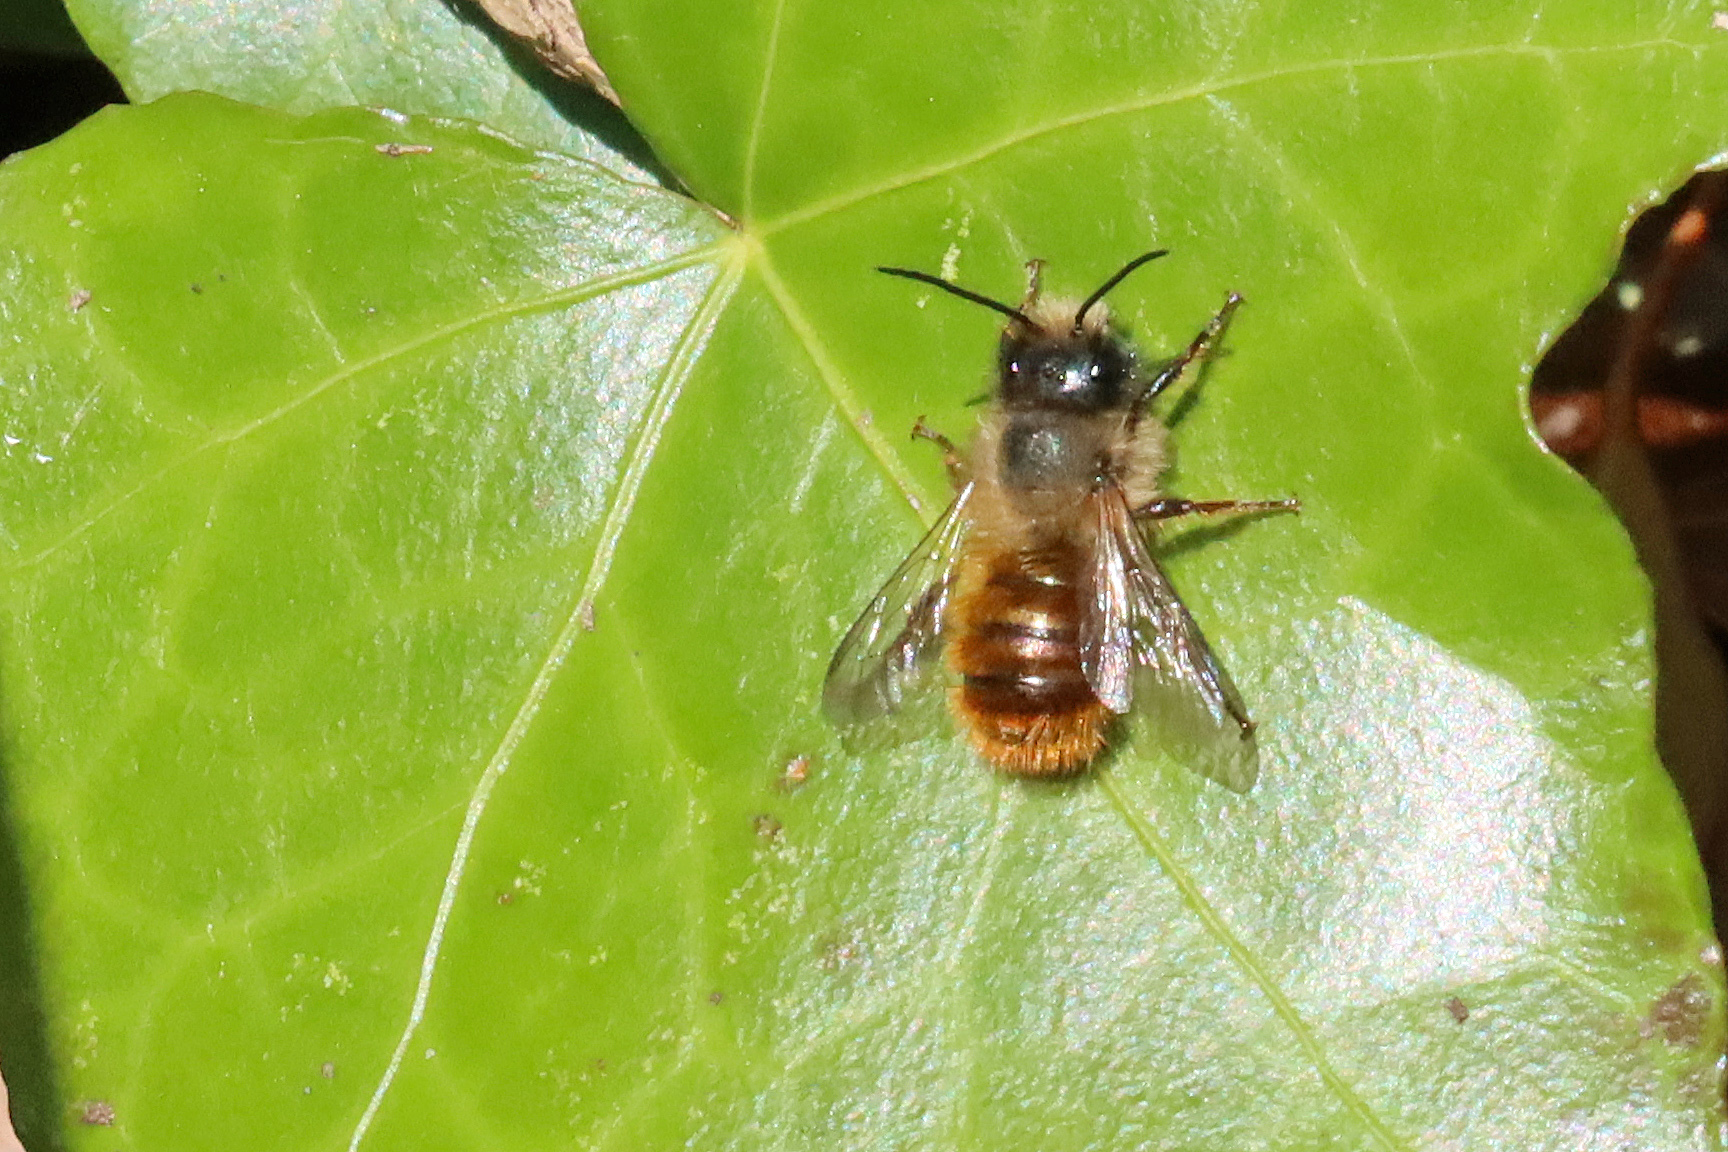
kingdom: Animalia
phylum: Arthropoda
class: Insecta
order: Hymenoptera
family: Megachilidae
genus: Osmia
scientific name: Osmia bicornis
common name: Red mason bee
